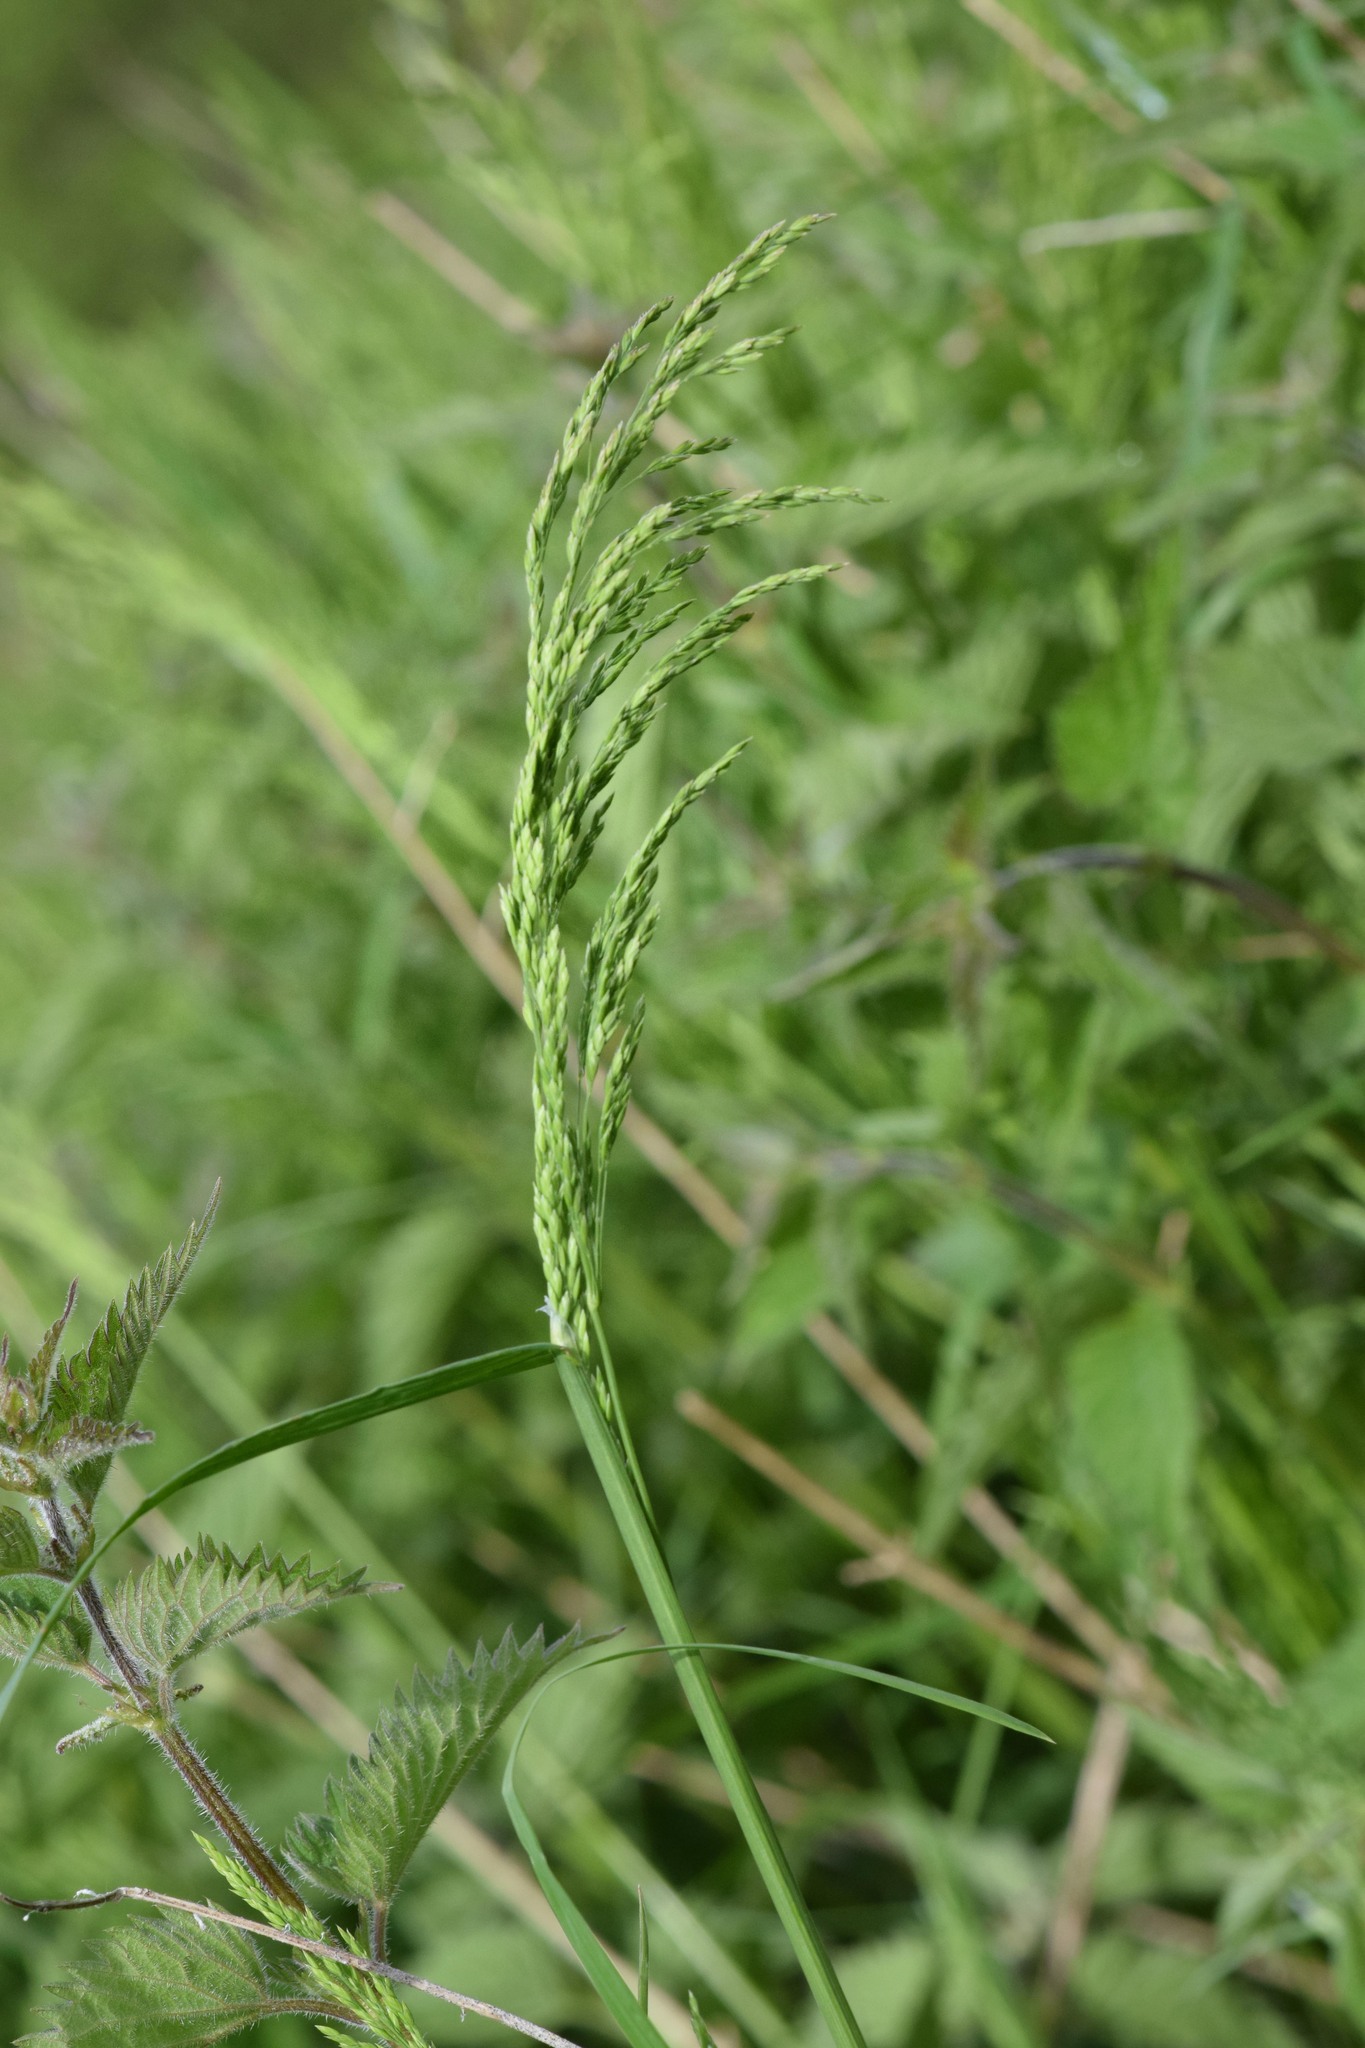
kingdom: Plantae
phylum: Tracheophyta
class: Liliopsida
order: Poales
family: Poaceae
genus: Poa
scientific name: Poa trivialis
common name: Rough bluegrass
